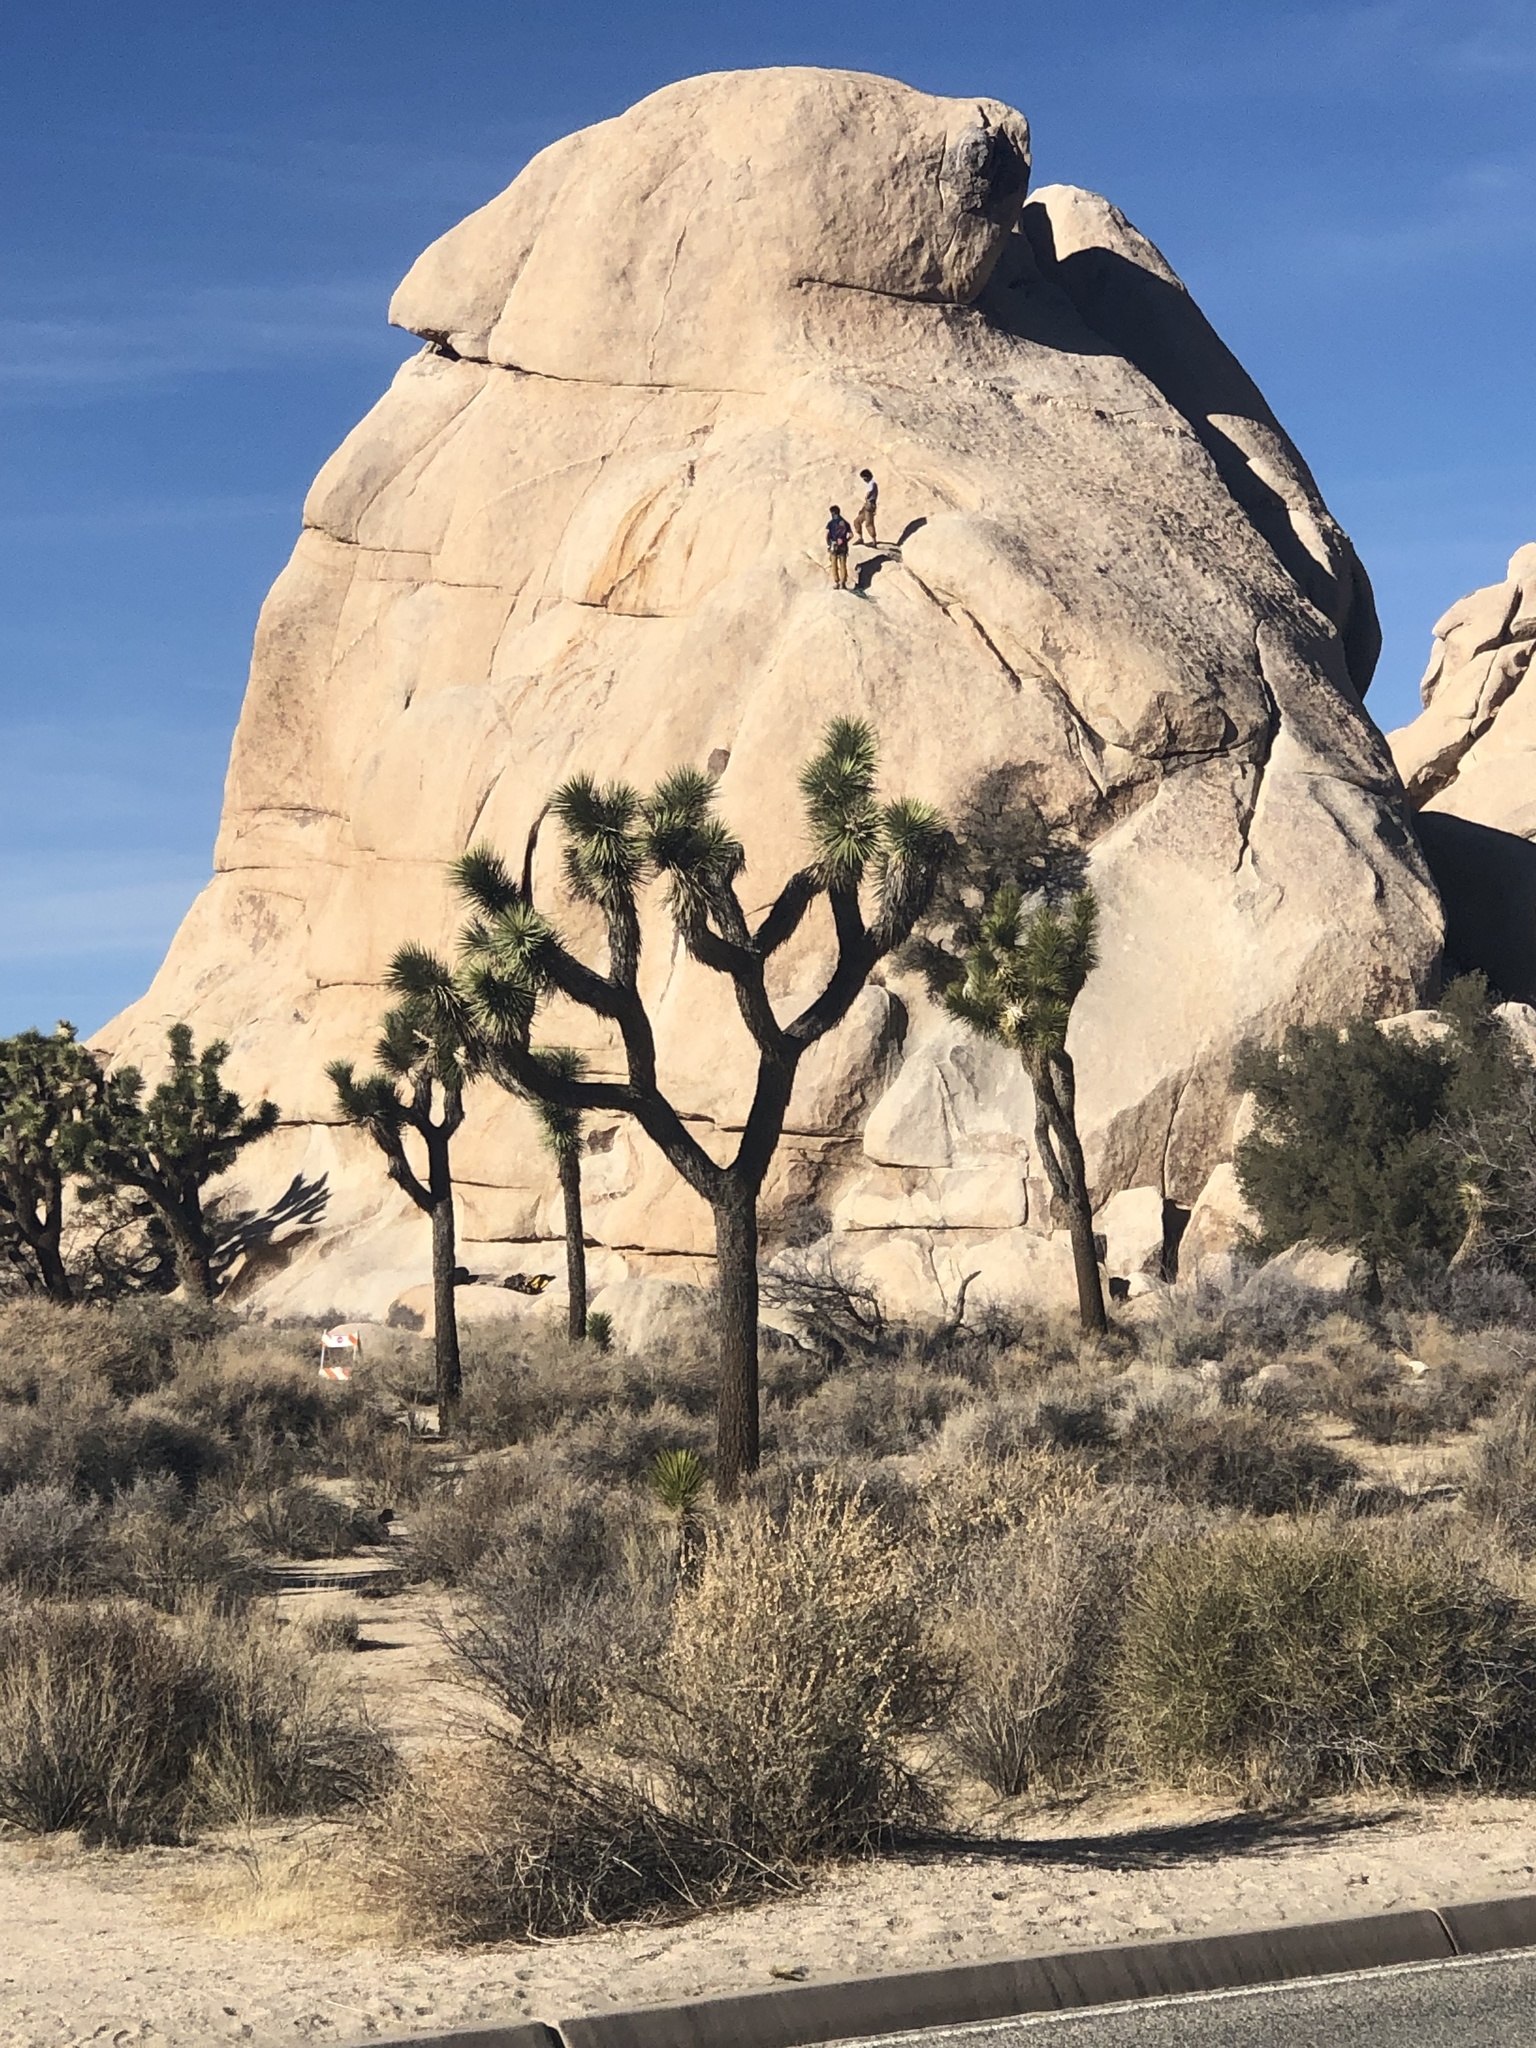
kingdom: Plantae
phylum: Tracheophyta
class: Liliopsida
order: Asparagales
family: Asparagaceae
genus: Yucca
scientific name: Yucca brevifolia
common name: Joshua tree
